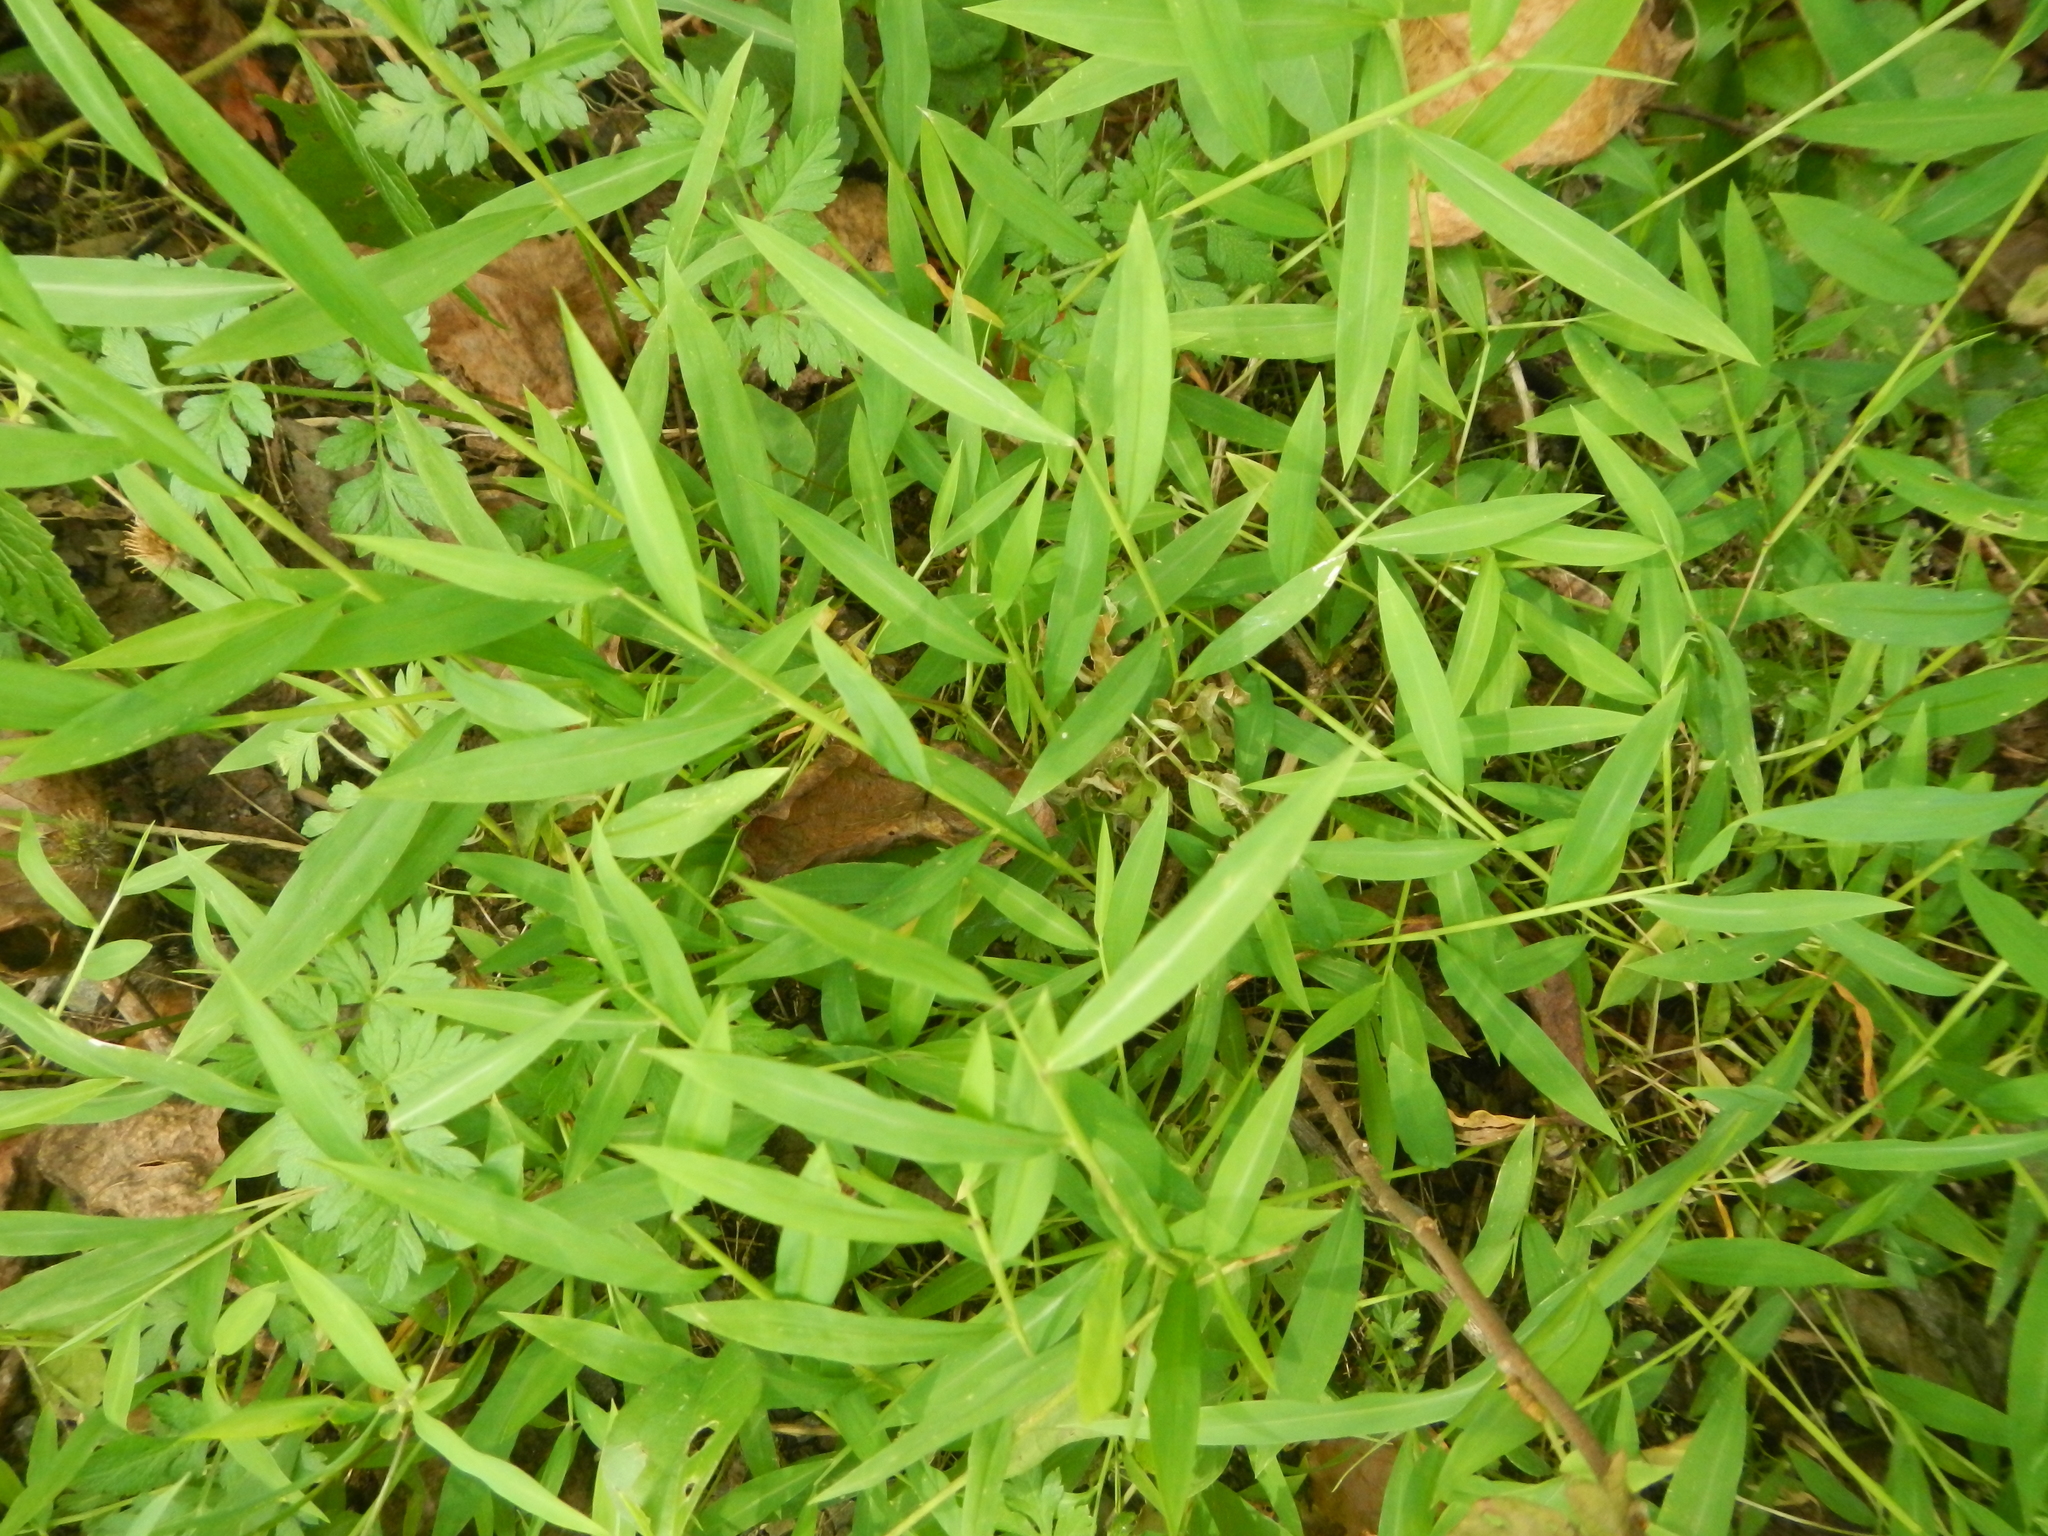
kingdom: Plantae
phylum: Tracheophyta
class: Liliopsida
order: Poales
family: Poaceae
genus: Microstegium
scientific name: Microstegium vimineum
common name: Japanese stiltgrass
